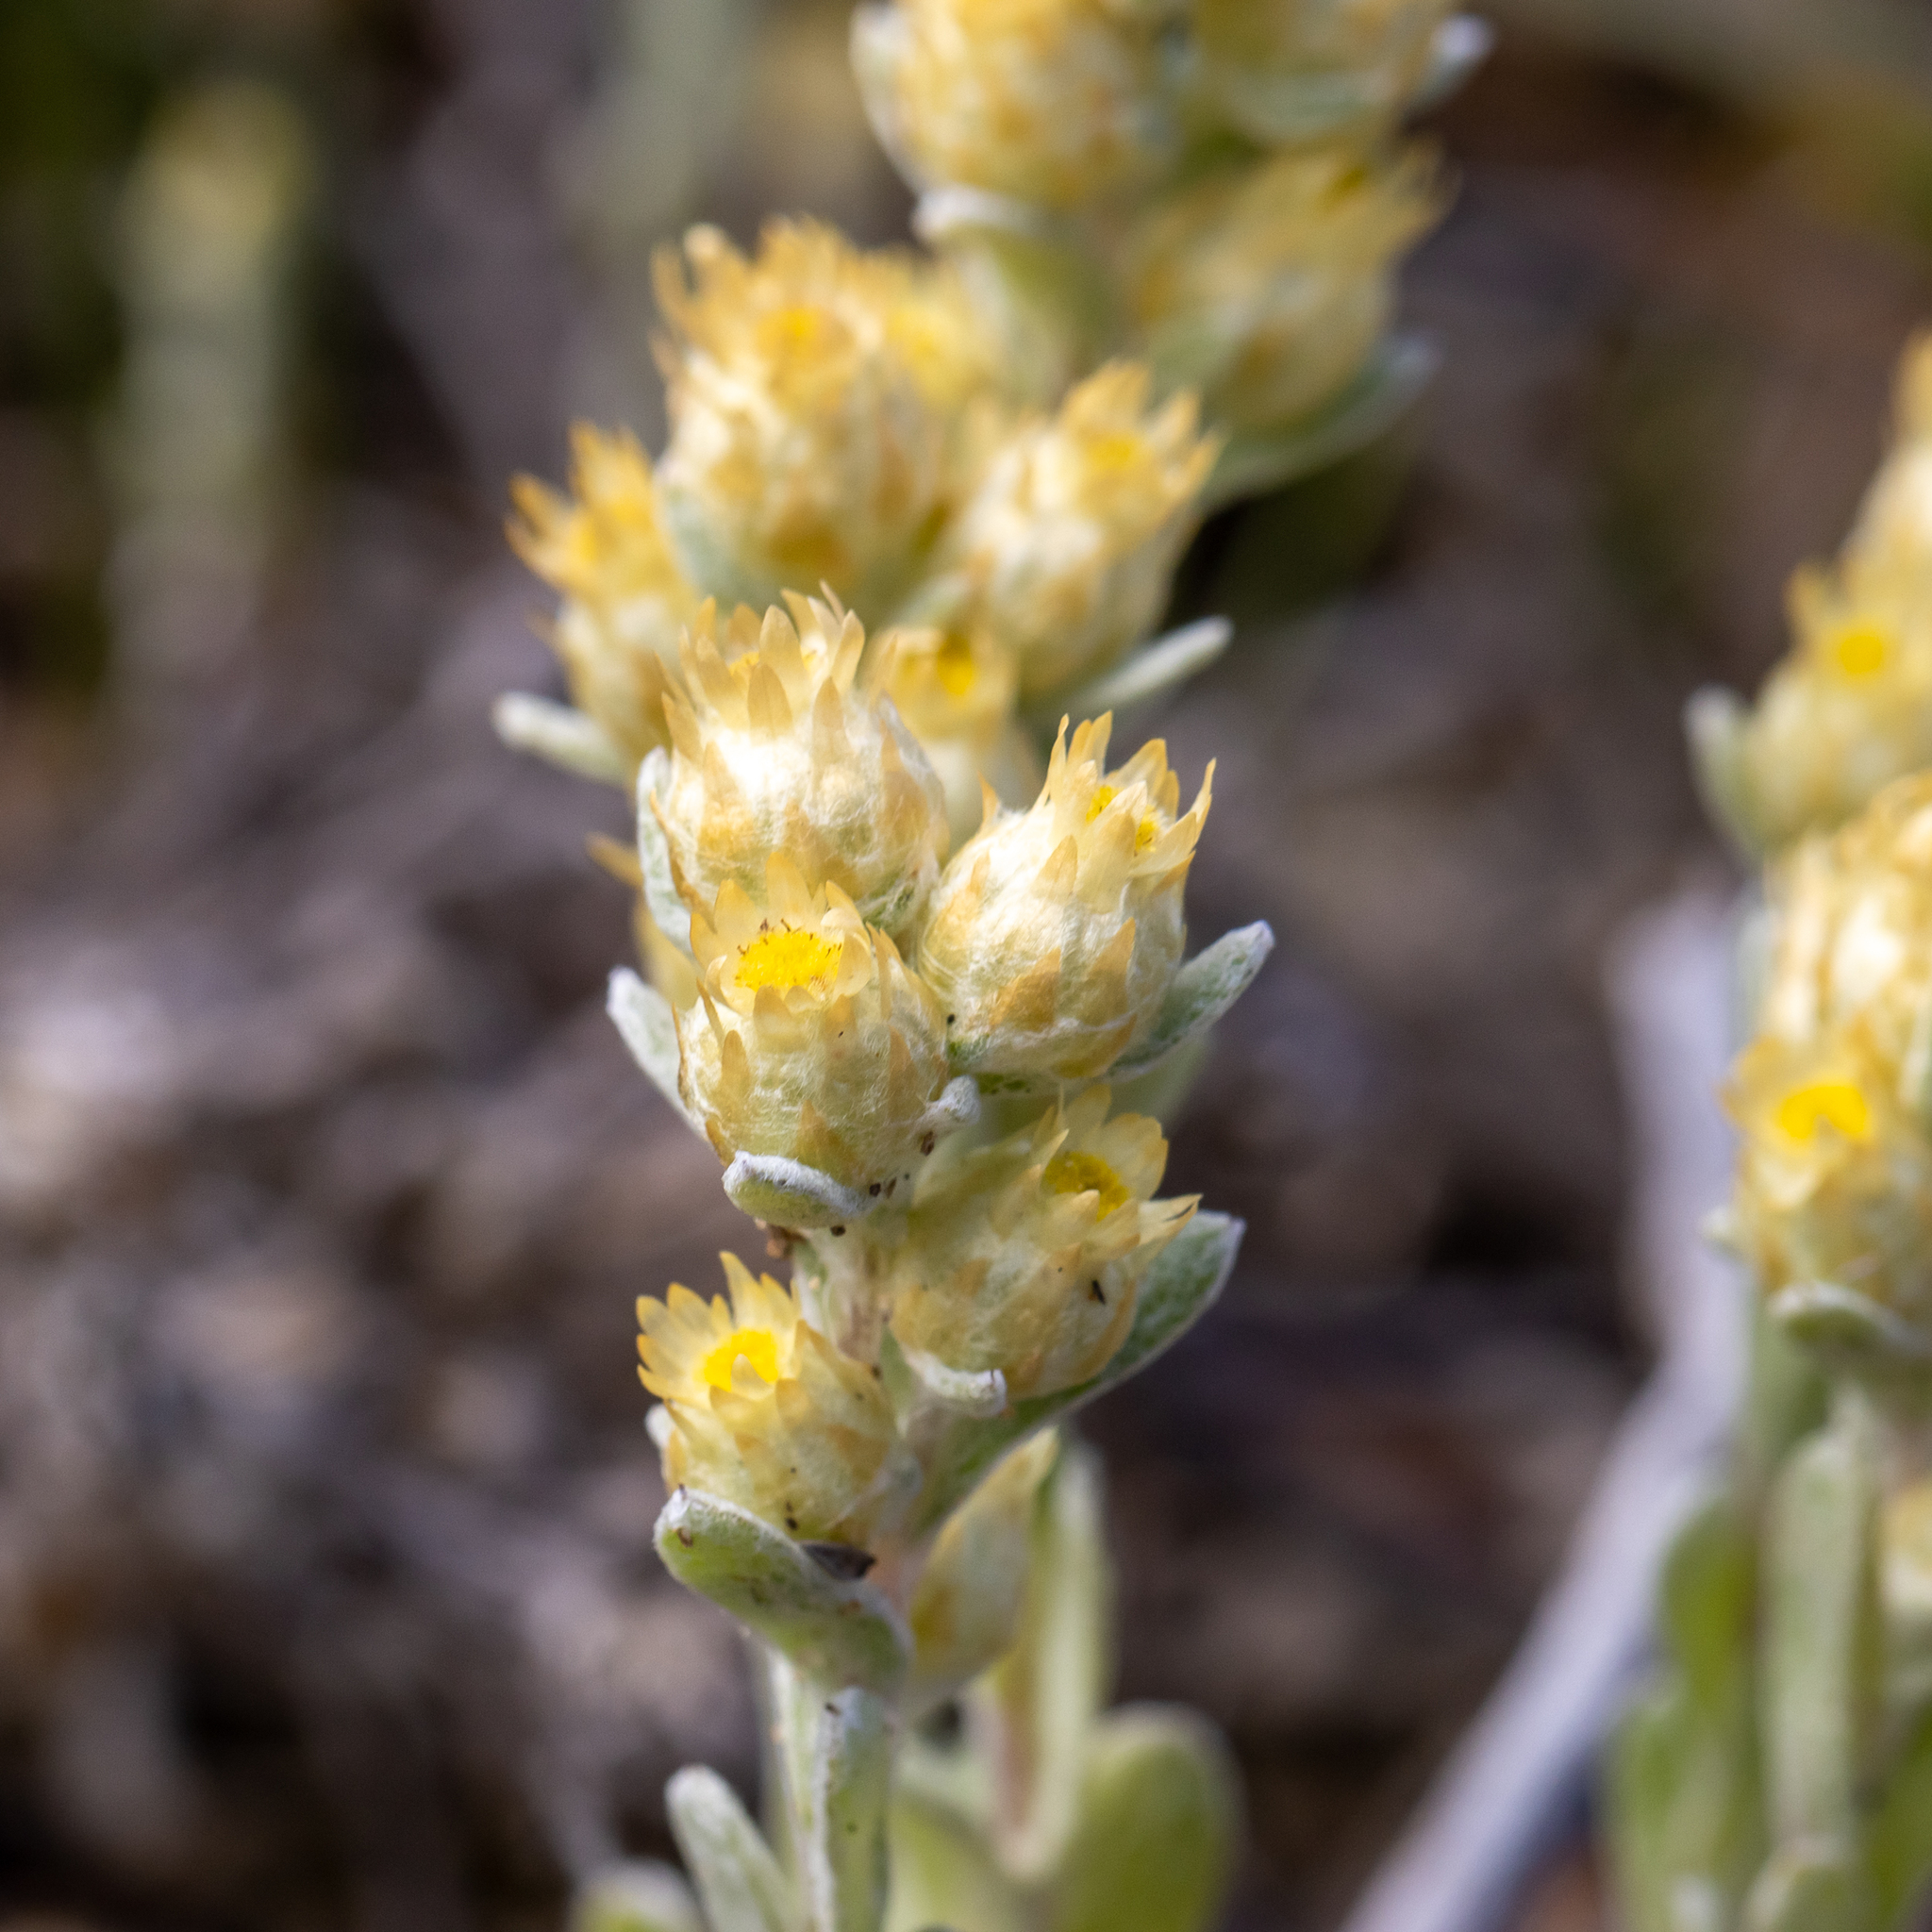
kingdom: Plantae
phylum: Tracheophyta
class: Magnoliopsida
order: Asterales
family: Asteraceae
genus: Pterochaeta
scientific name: Pterochaeta paniculata
